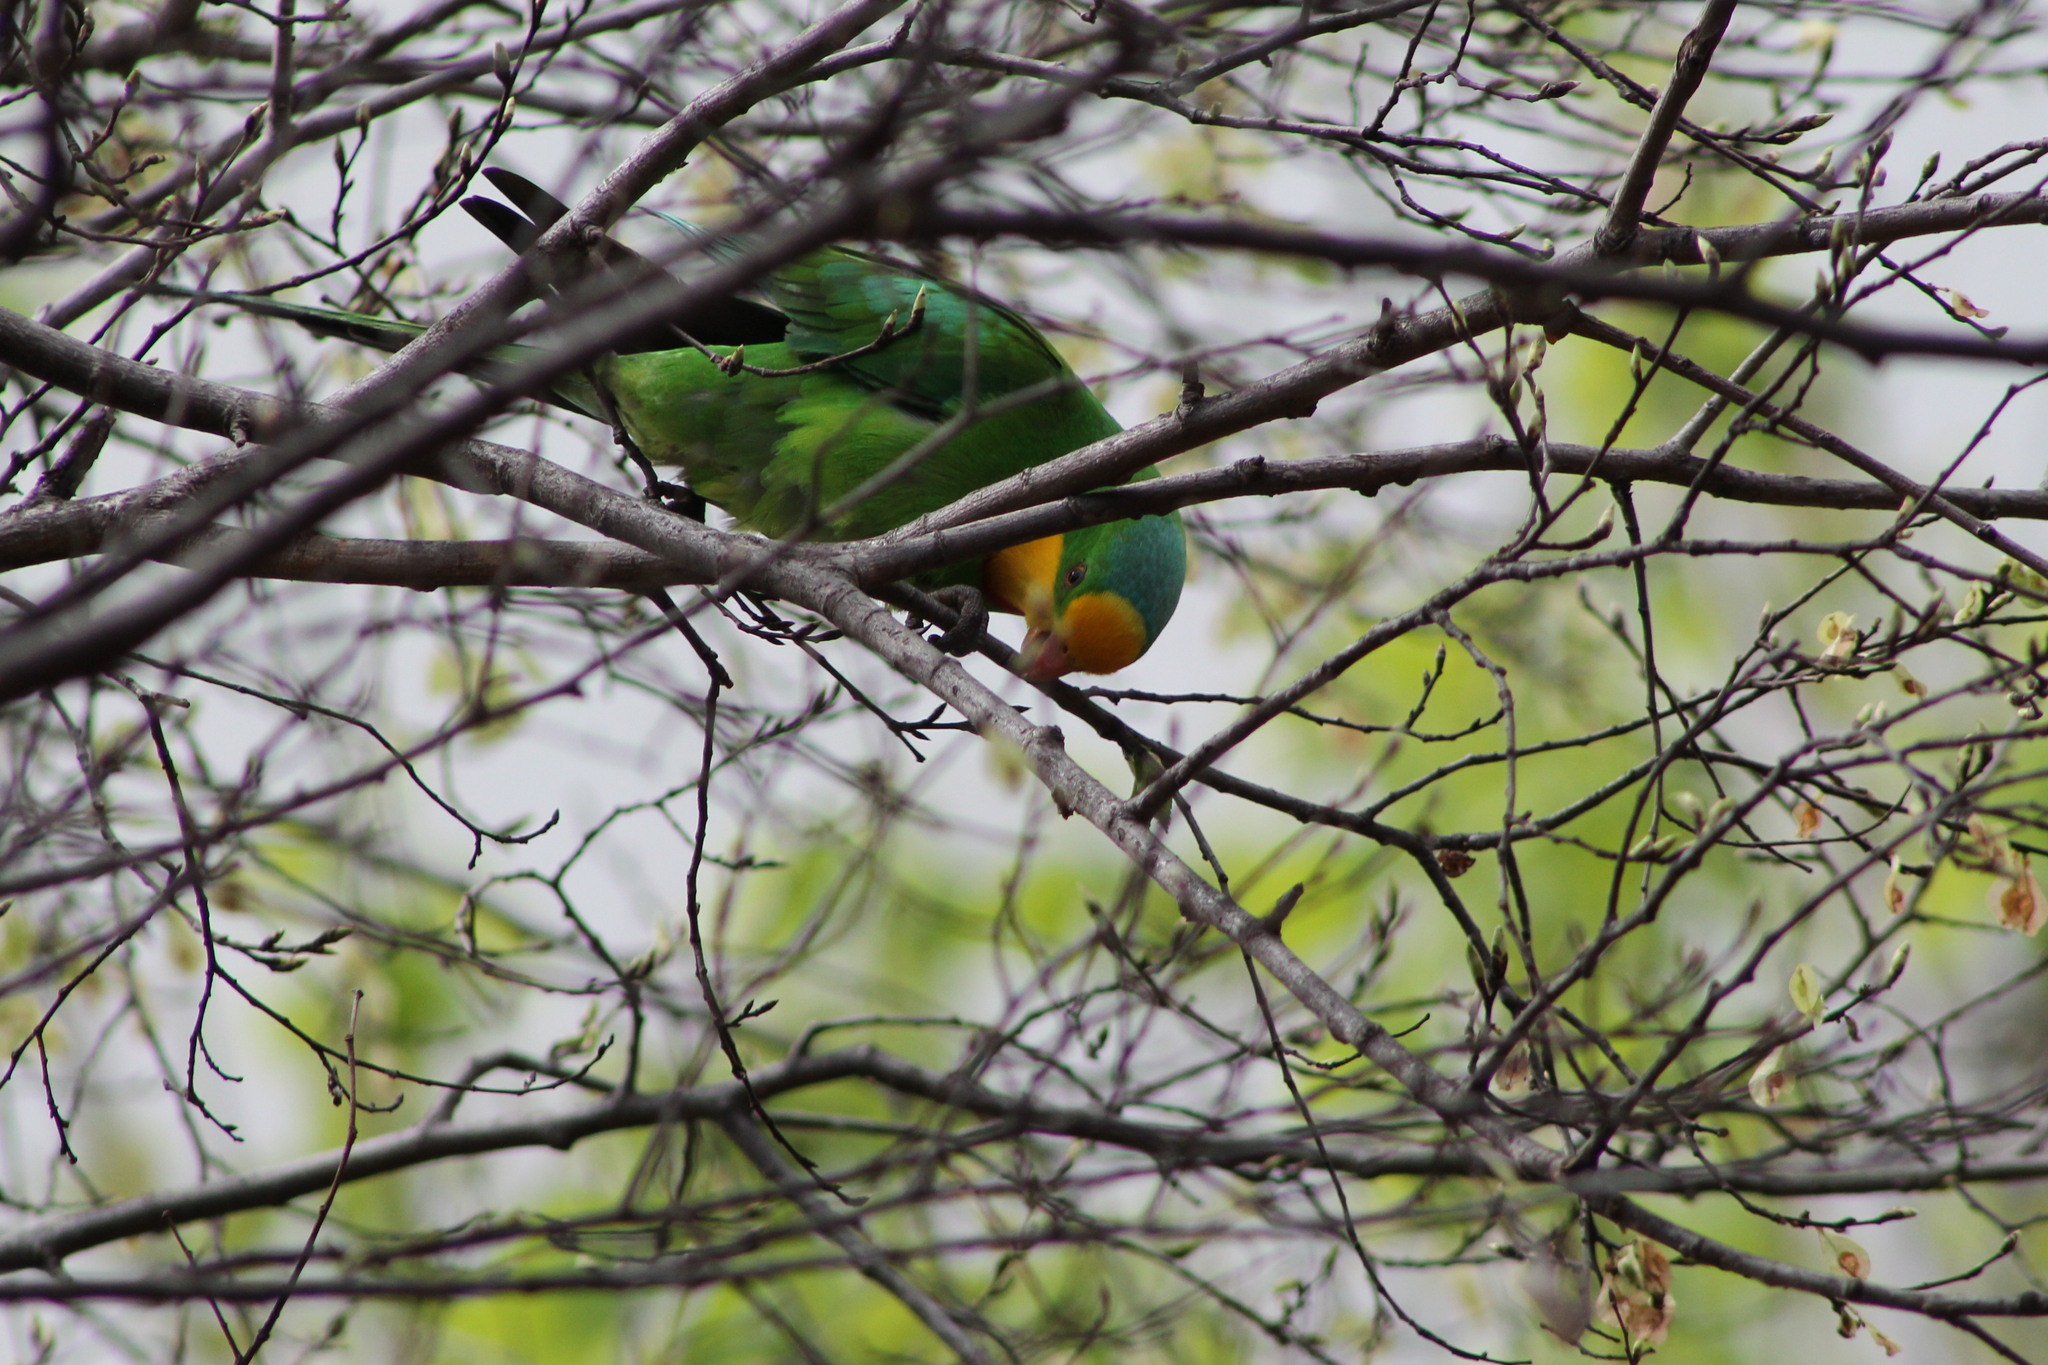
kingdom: Animalia
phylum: Chordata
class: Aves
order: Psittaciformes
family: Psittacidae
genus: Polytelis
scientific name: Polytelis swainsonii
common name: Superb parrot
